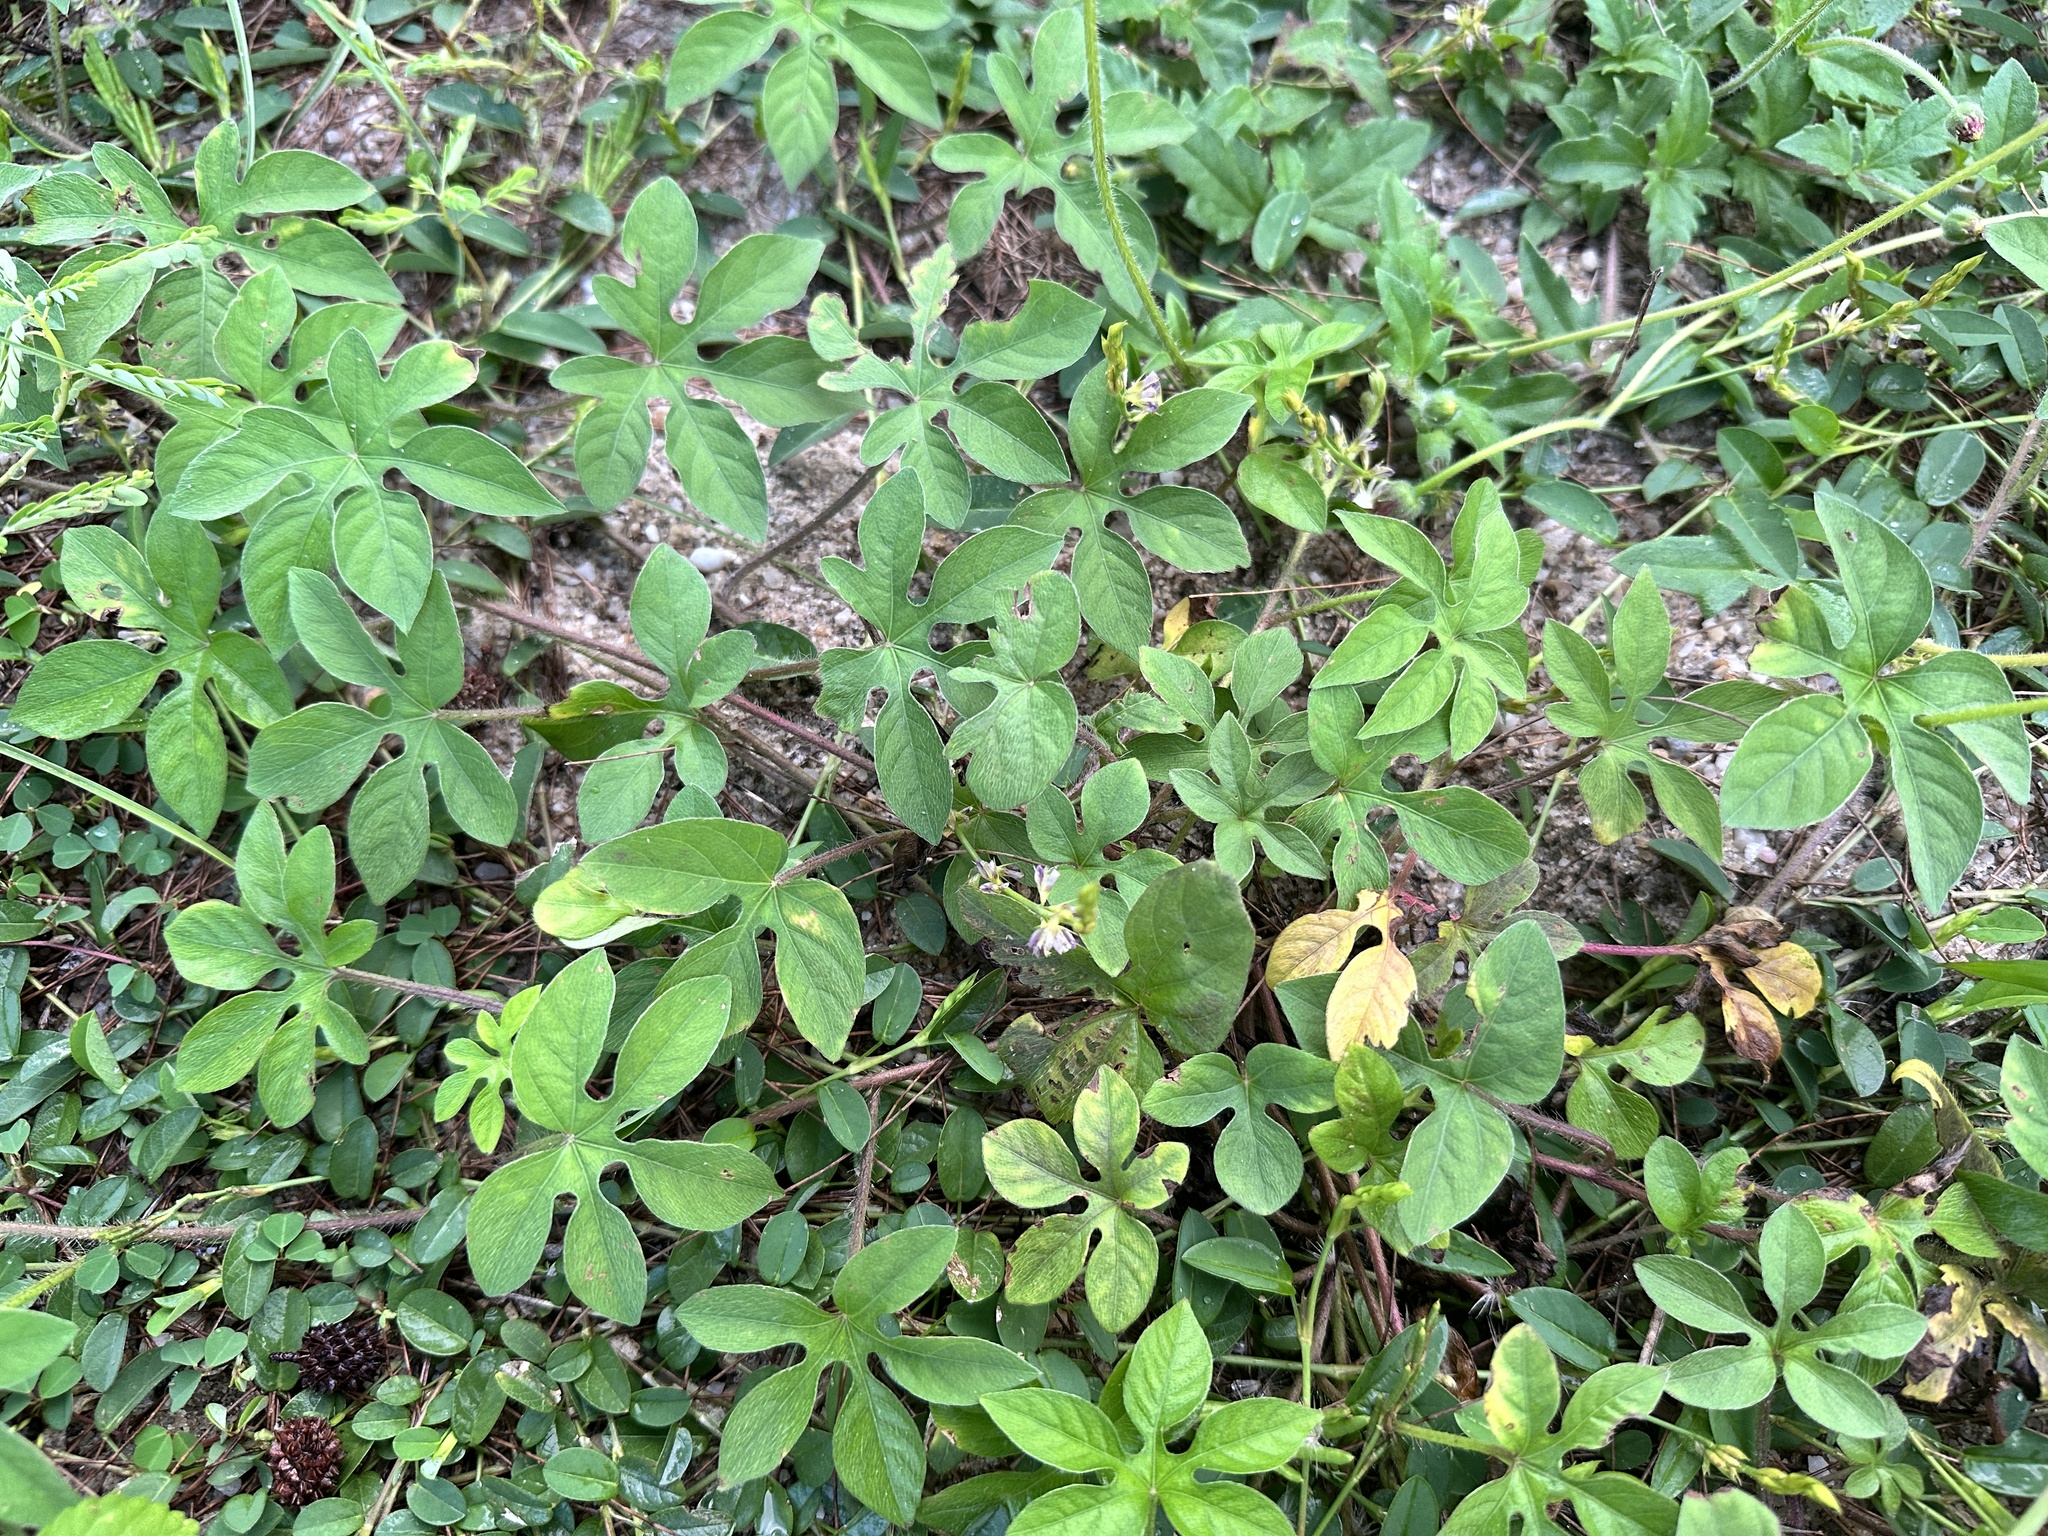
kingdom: Plantae
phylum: Tracheophyta
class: Magnoliopsida
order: Solanales
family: Convolvulaceae
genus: Ipomoea
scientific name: Ipomoea pes-tigridis
